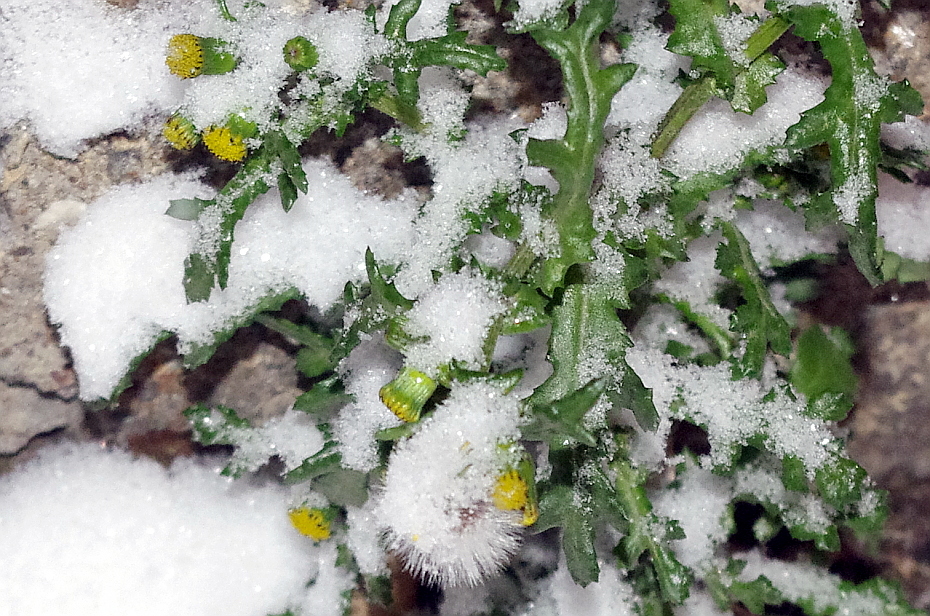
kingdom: Plantae
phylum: Tracheophyta
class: Magnoliopsida
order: Asterales
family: Asteraceae
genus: Senecio
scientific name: Senecio vulgaris
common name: Old-man-in-the-spring
